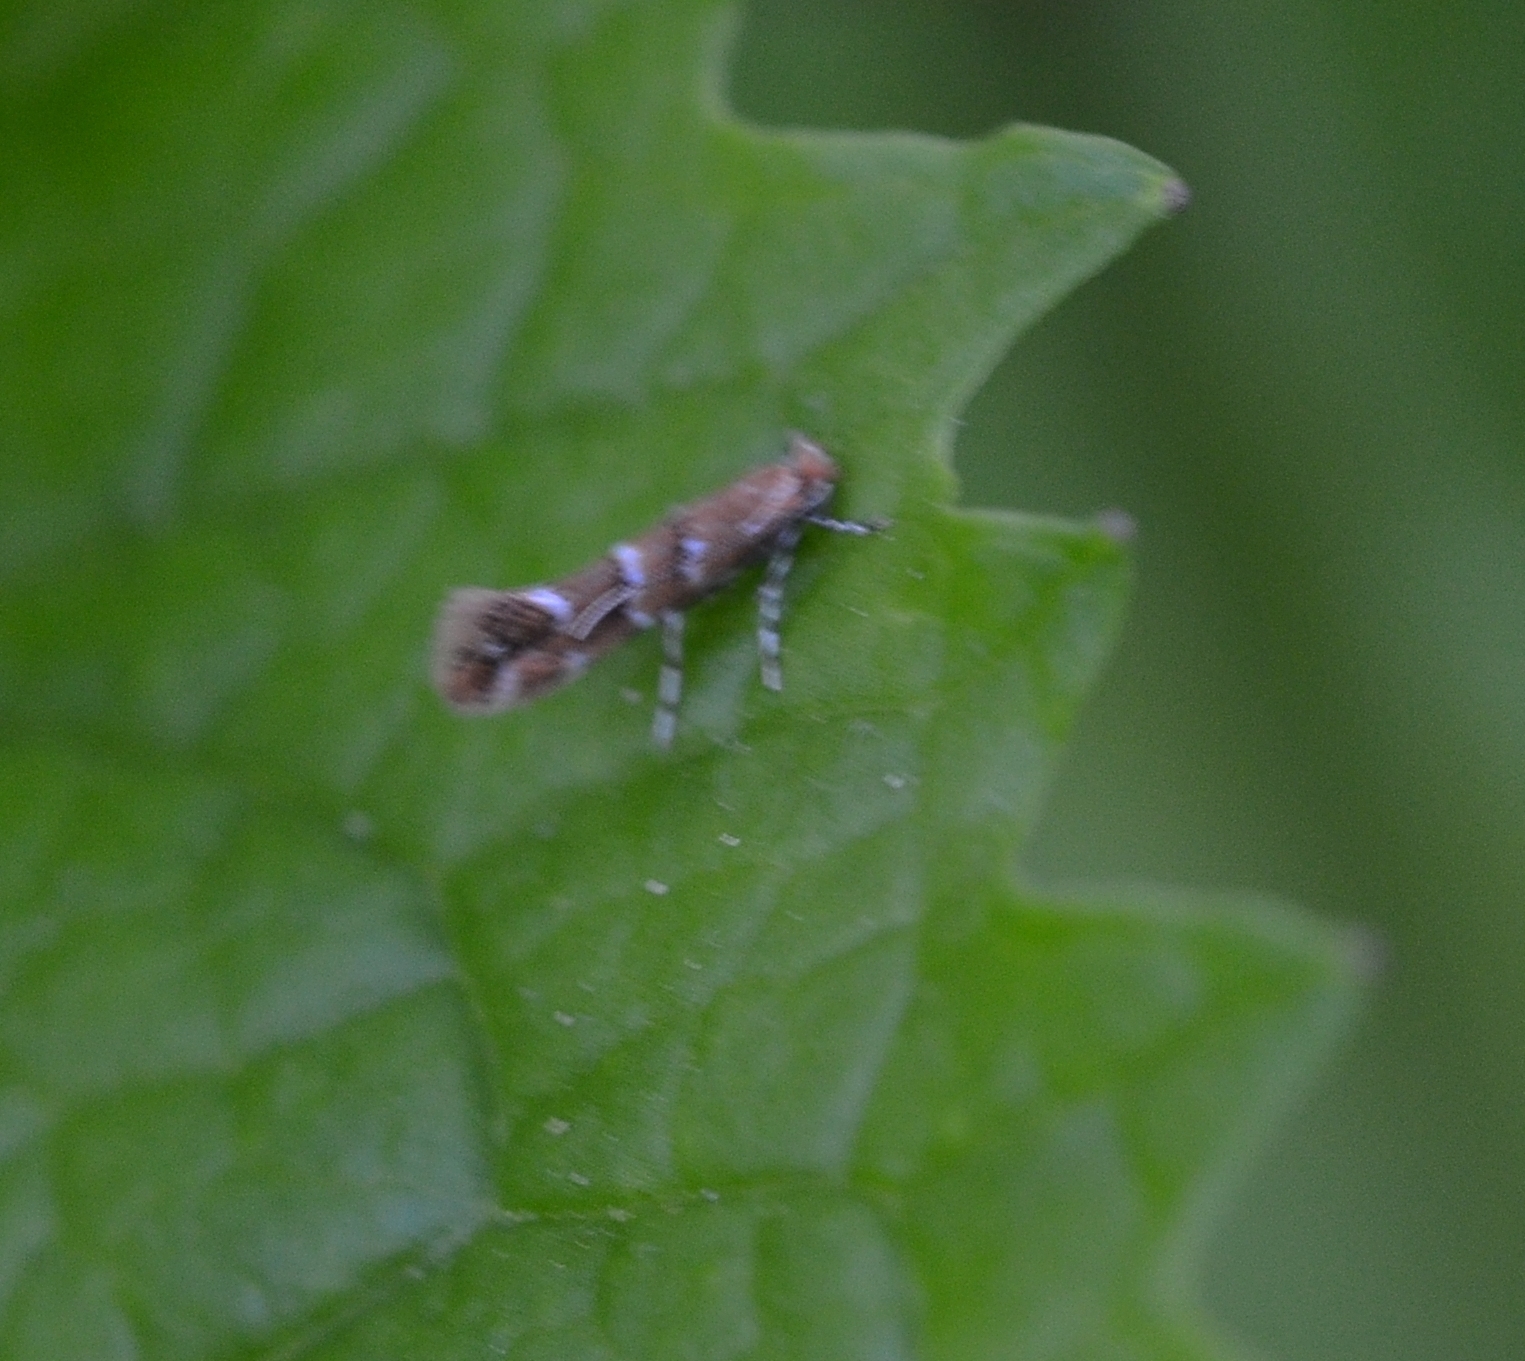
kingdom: Animalia
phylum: Arthropoda
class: Insecta
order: Lepidoptera
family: Gracillariidae
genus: Cameraria
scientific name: Cameraria ohridella
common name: Horse-chestnut leaf-miner
